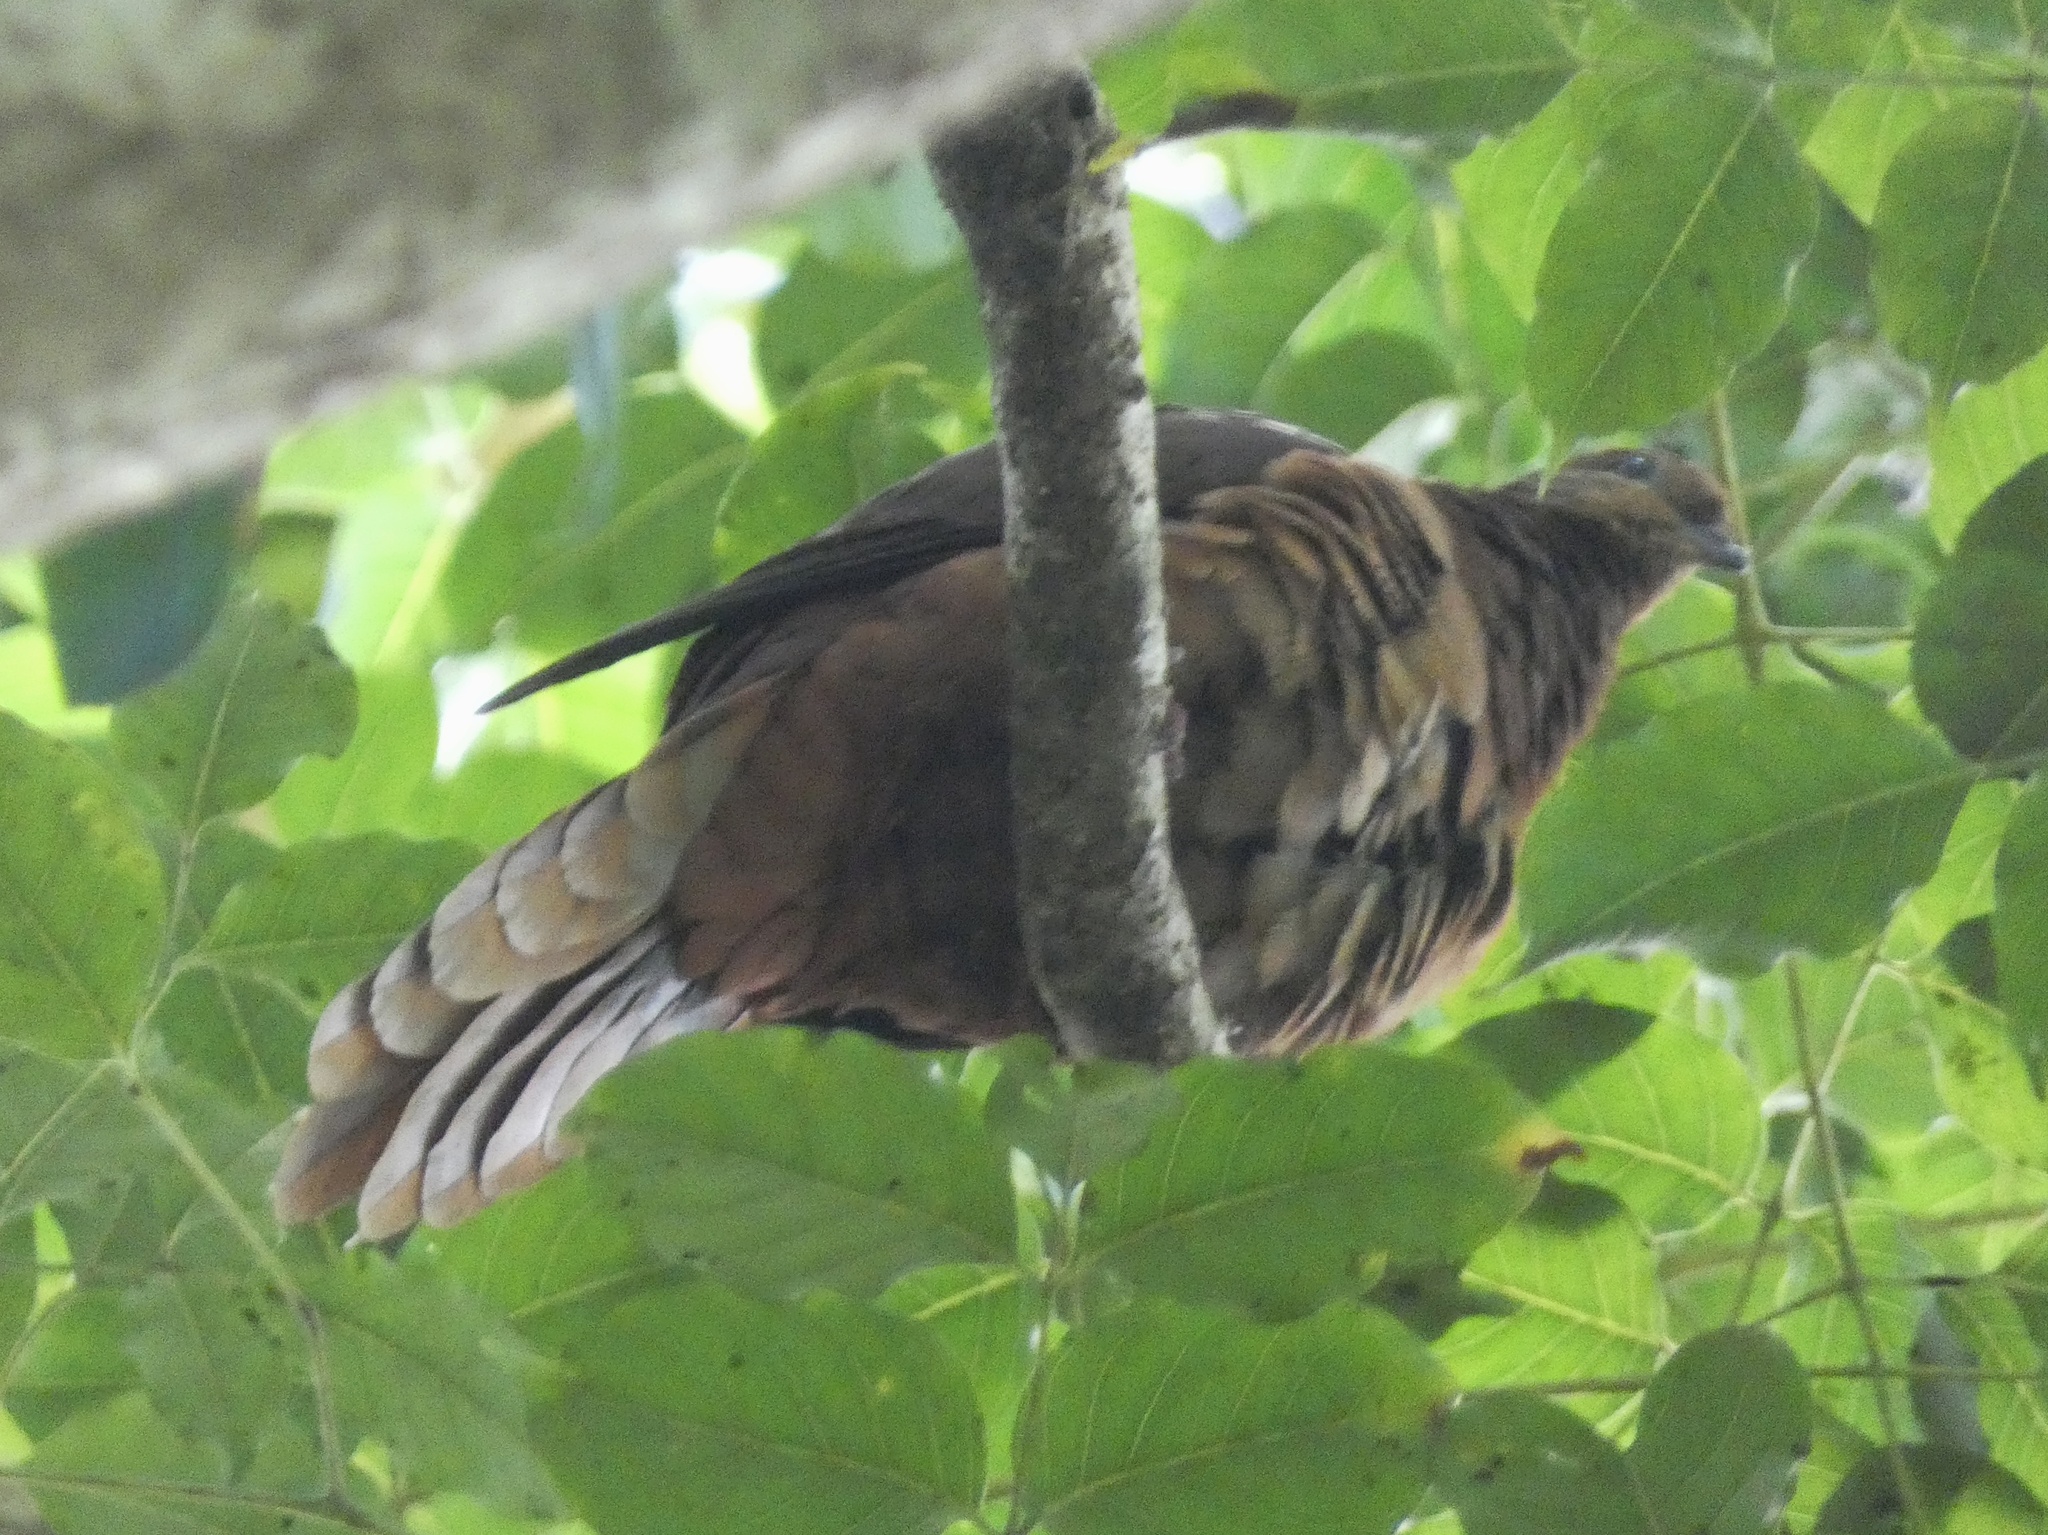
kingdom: Animalia
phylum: Chordata
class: Aves
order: Columbiformes
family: Columbidae
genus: Macropygia
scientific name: Macropygia phasianella
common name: Brown cuckoo-dove
